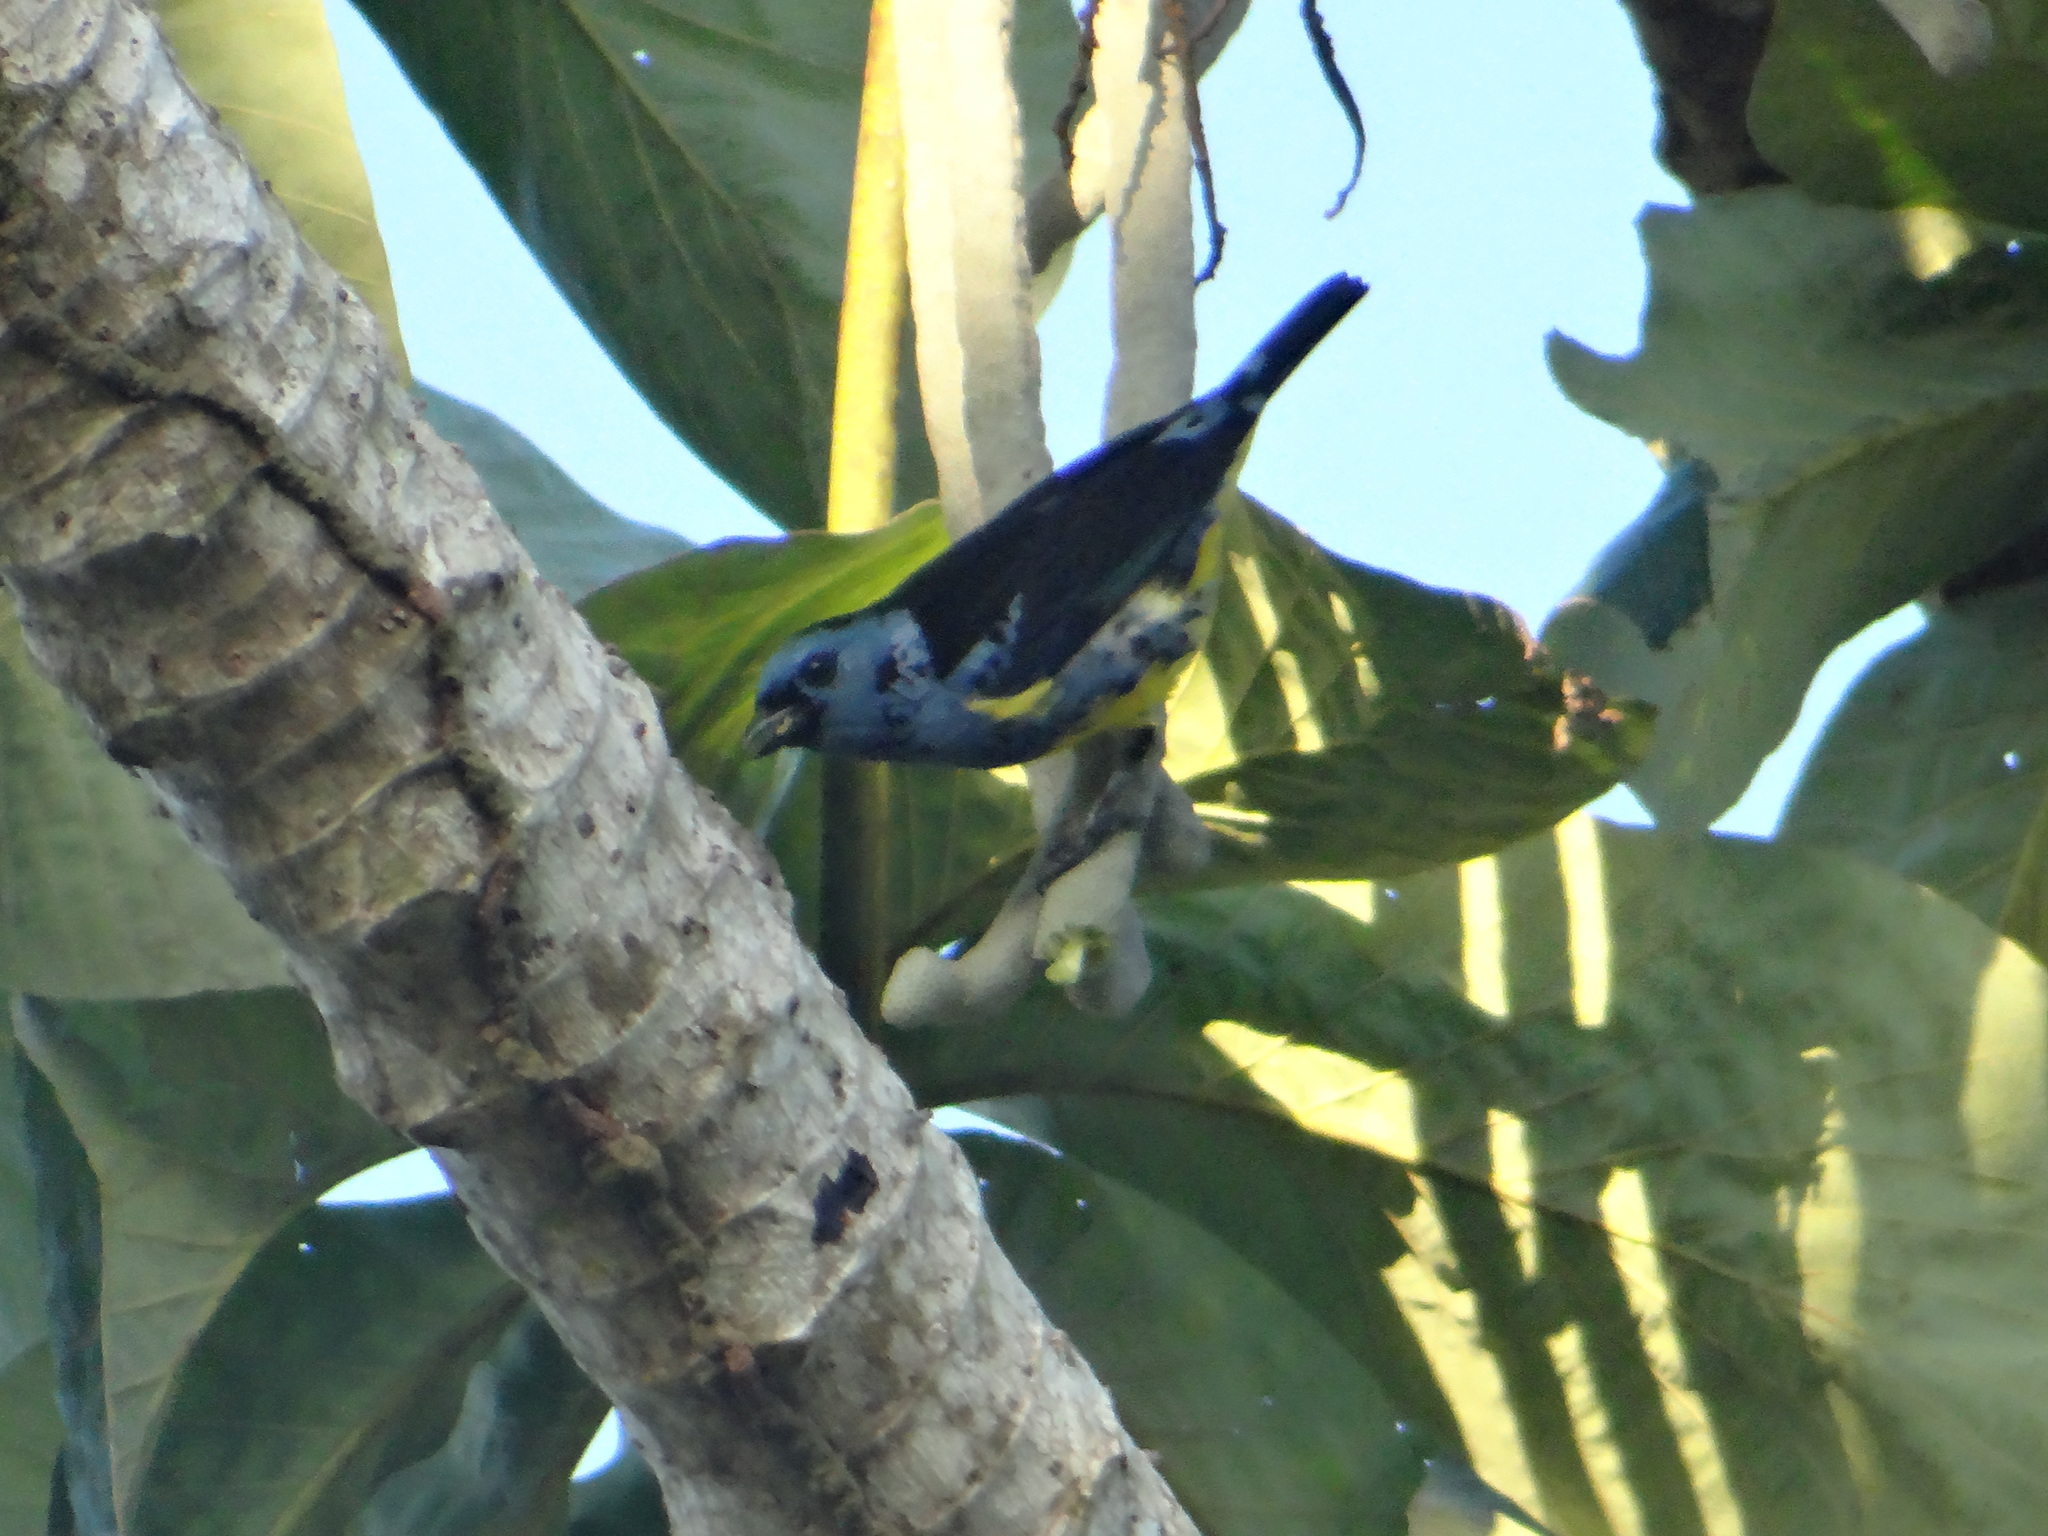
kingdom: Animalia
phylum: Chordata
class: Aves
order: Passeriformes
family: Thraupidae
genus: Tangara
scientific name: Tangara mexicana
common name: Turquoise tanager
